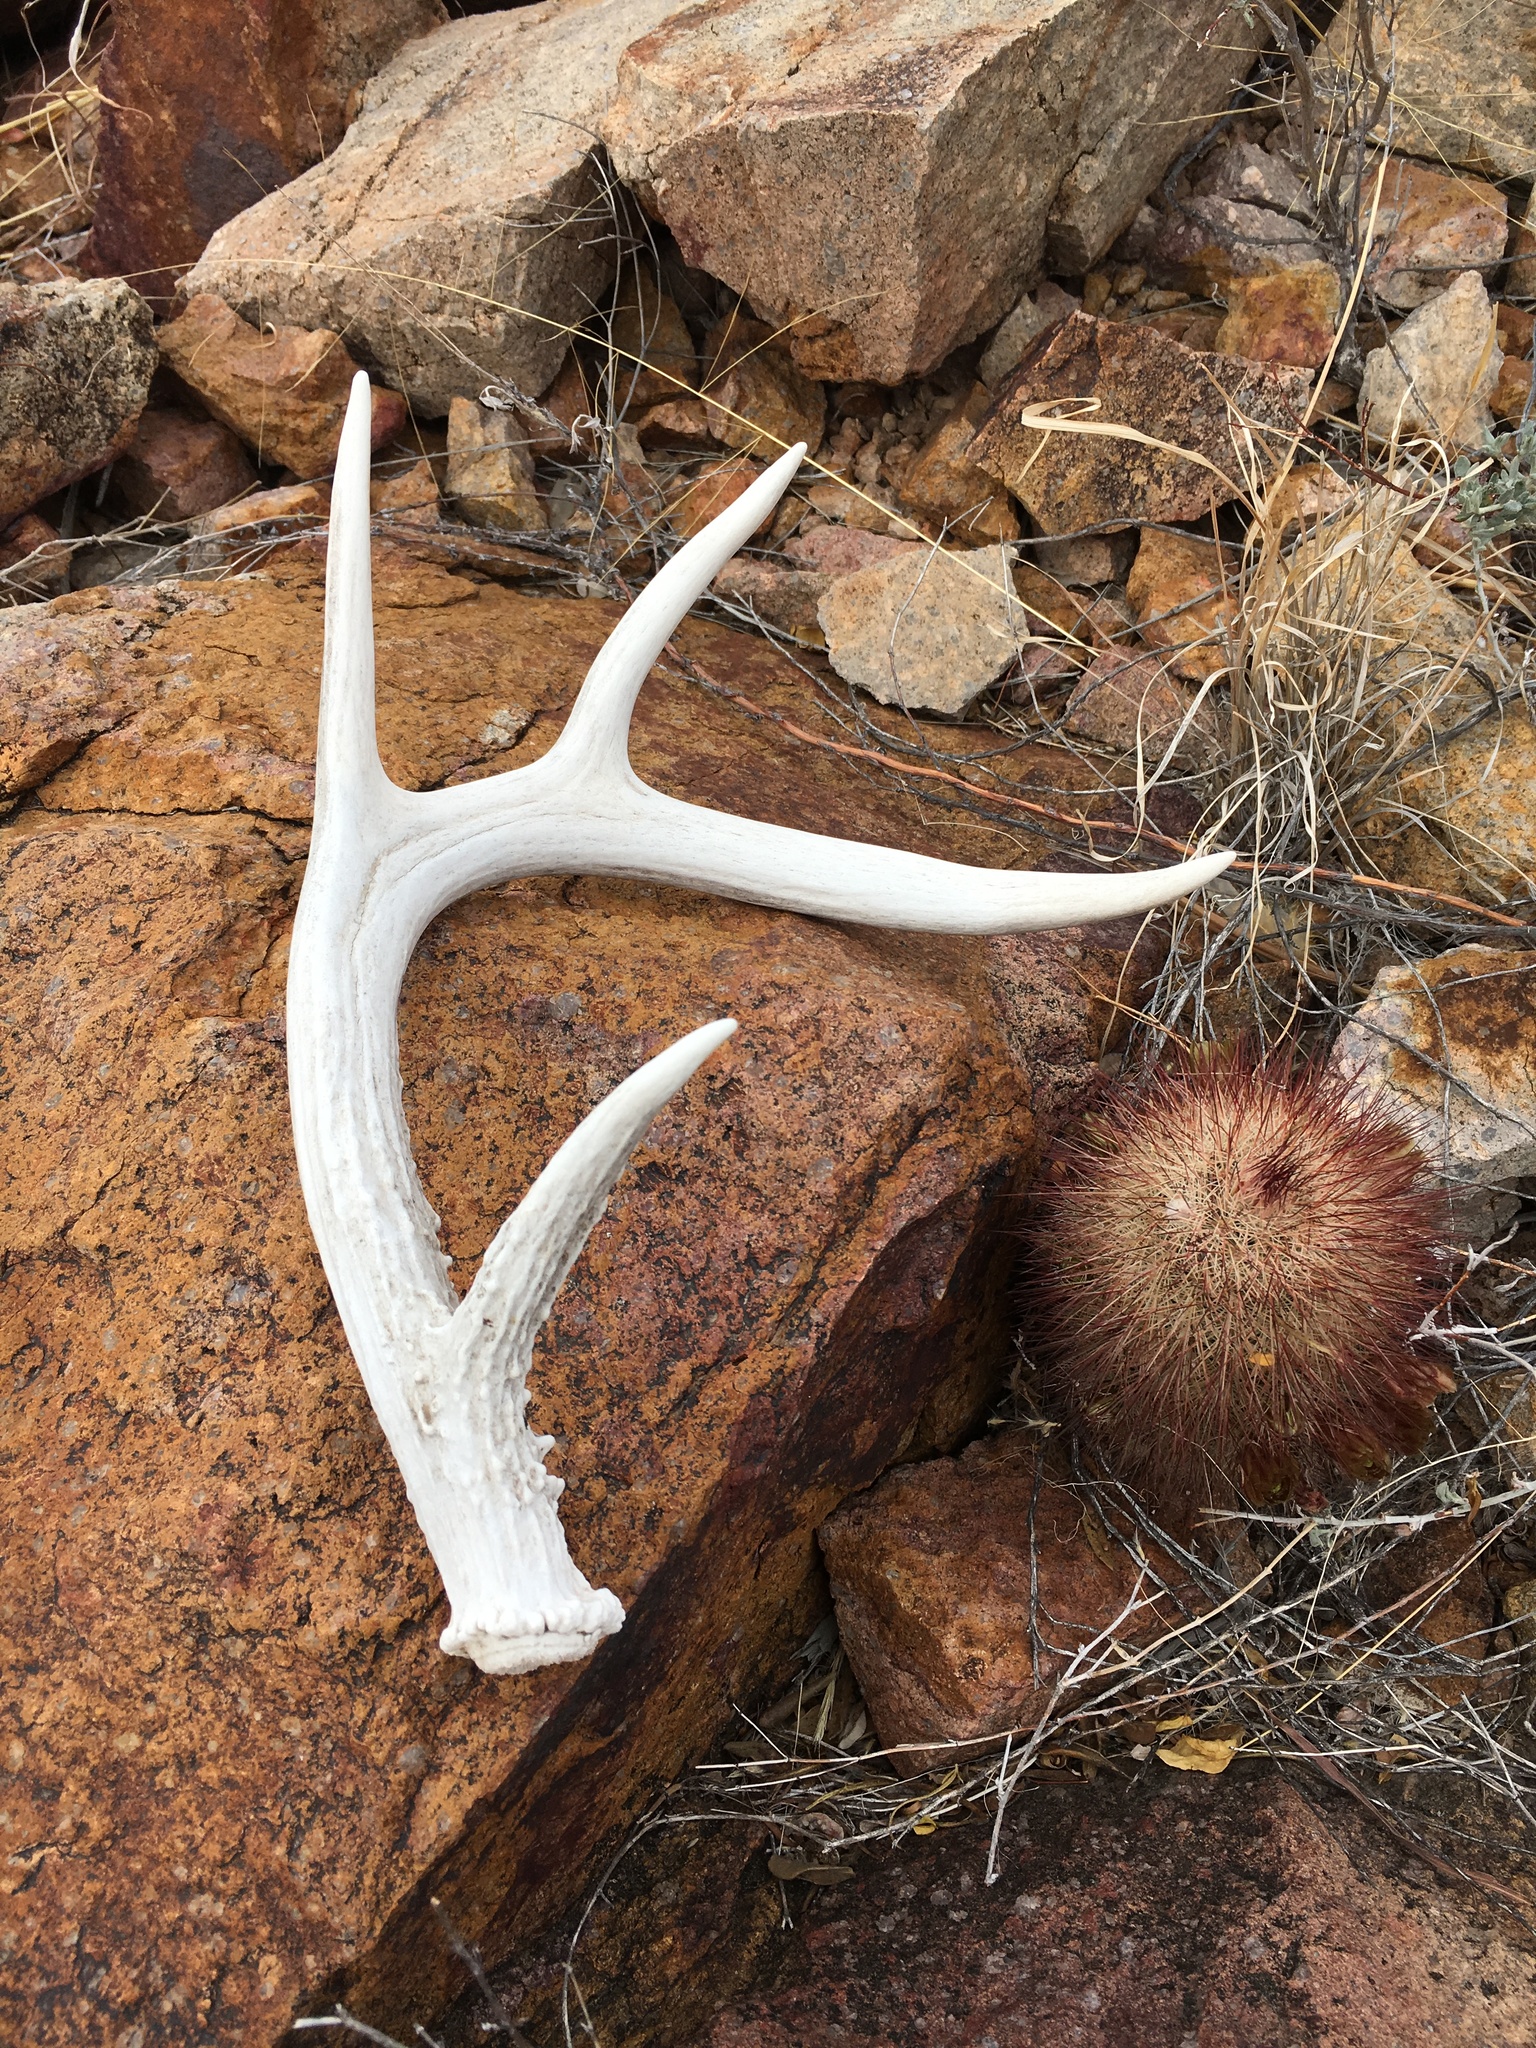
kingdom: Animalia
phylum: Chordata
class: Mammalia
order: Artiodactyla
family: Cervidae
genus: Odocoileus
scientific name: Odocoileus virginianus
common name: White-tailed deer
